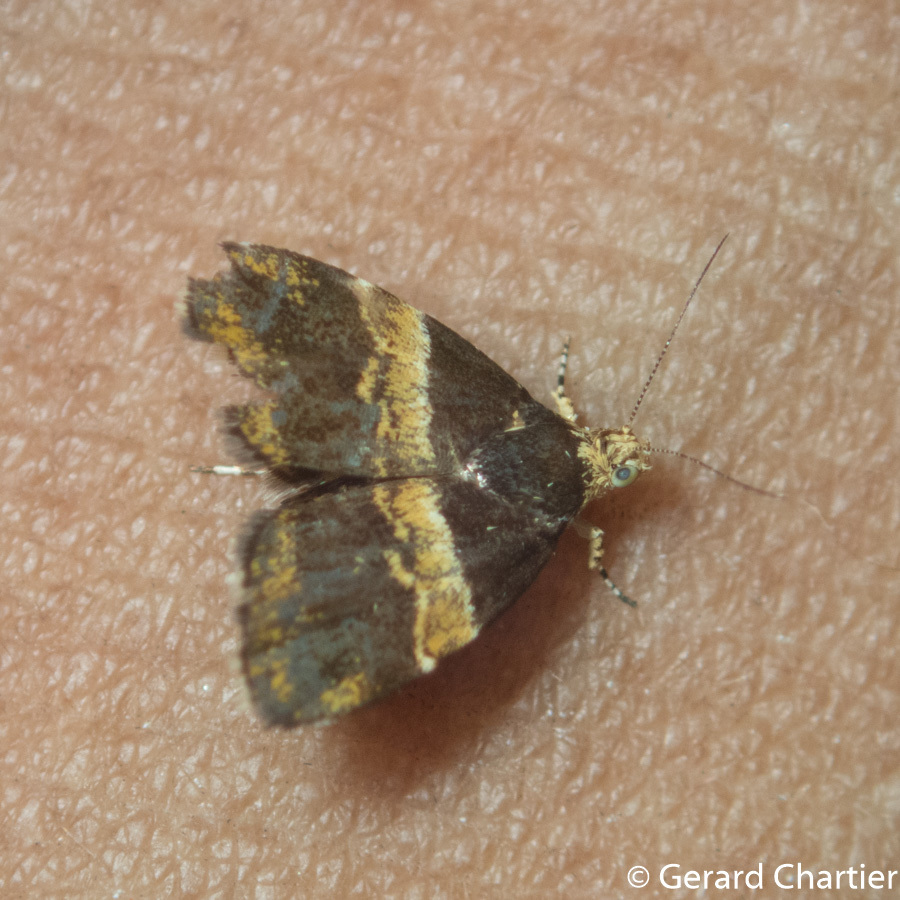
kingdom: Animalia
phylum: Arthropoda
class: Insecta
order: Lepidoptera
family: Choreutidae
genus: Choreutis
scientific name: Choreutis basalis
